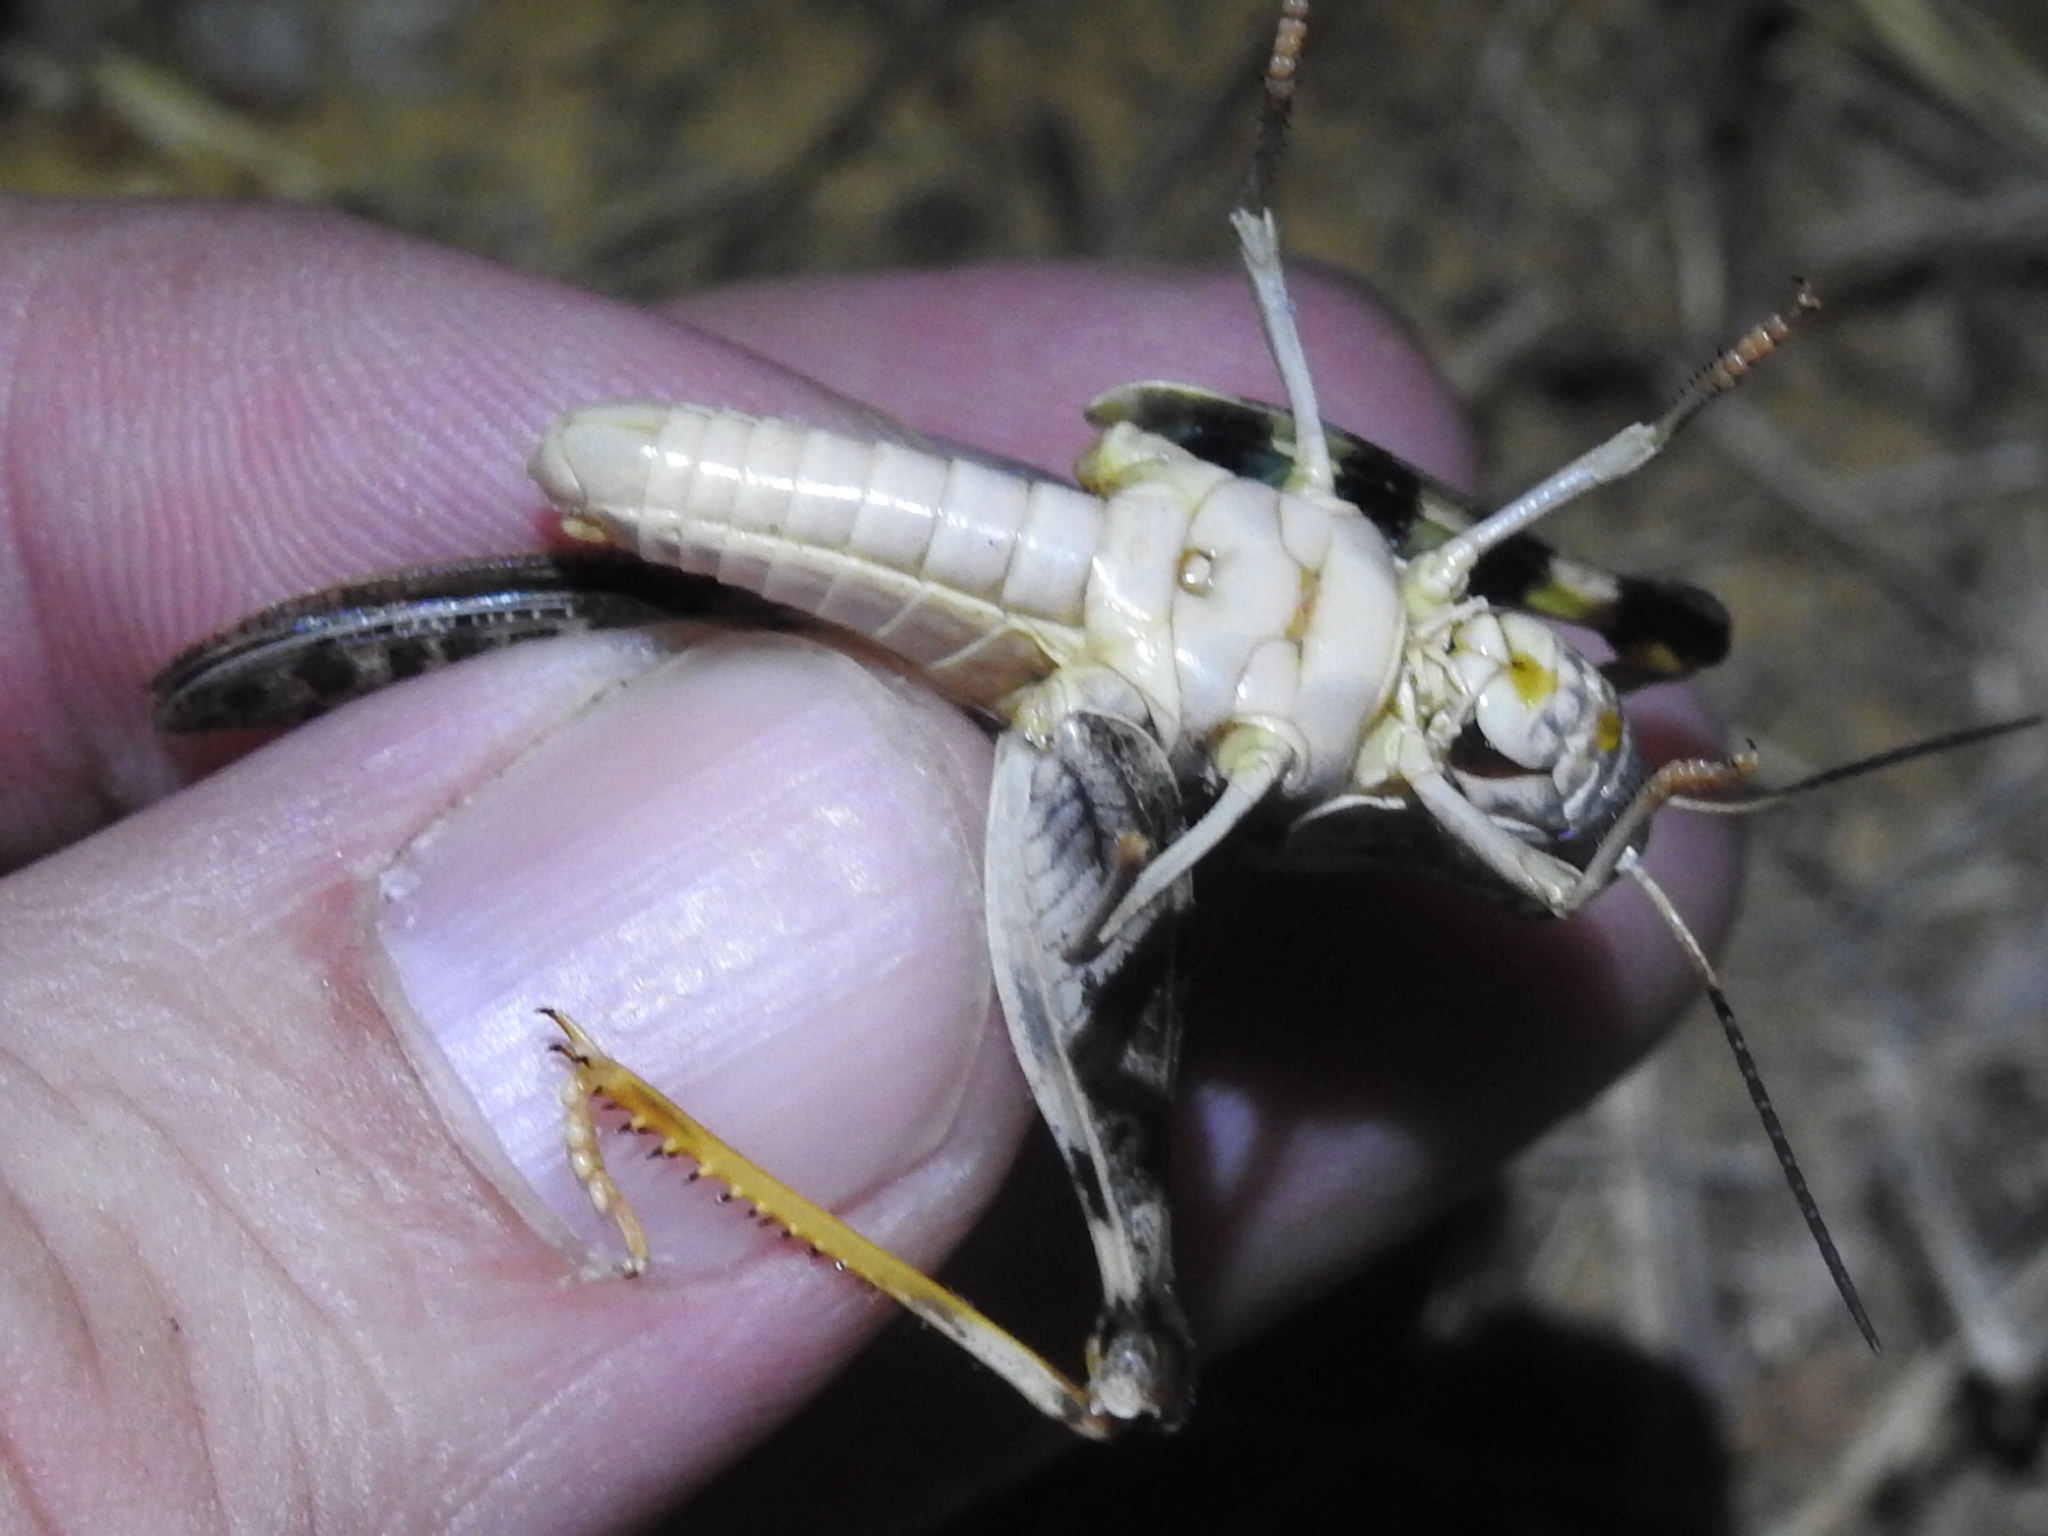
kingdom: Animalia
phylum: Arthropoda
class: Insecta
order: Orthoptera
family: Acrididae
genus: Hippiscus
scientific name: Hippiscus ocelote
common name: Wrinkled grasshopper
